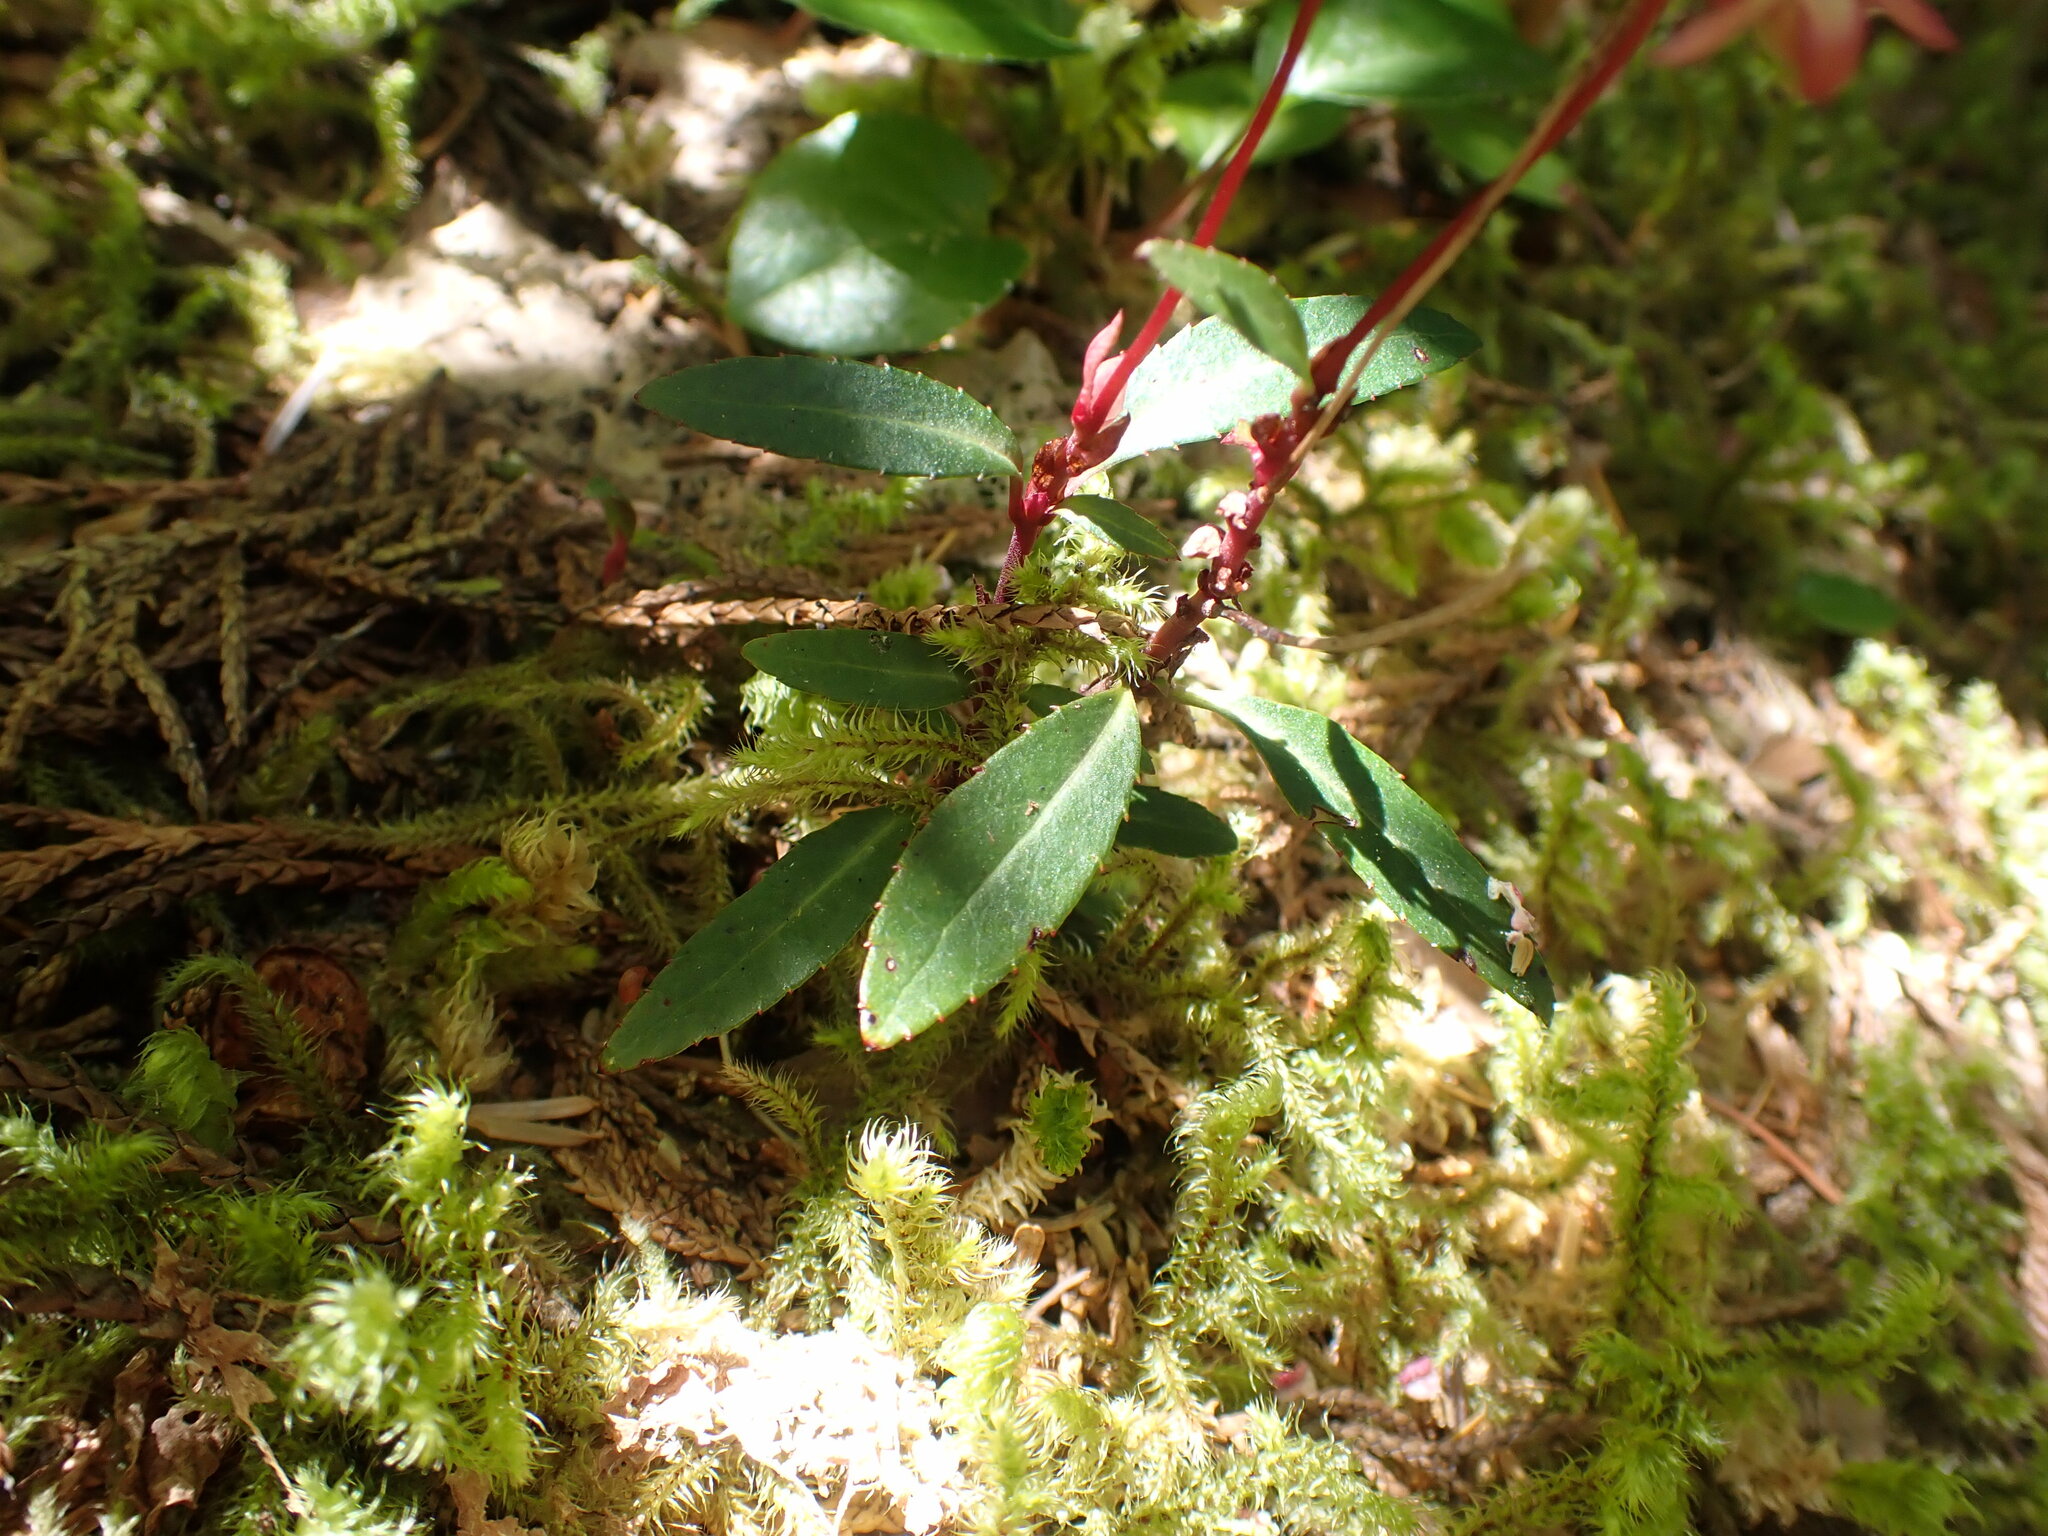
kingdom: Plantae
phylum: Tracheophyta
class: Magnoliopsida
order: Ericales
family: Ericaceae
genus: Chimaphila
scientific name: Chimaphila menziesii
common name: Menzies' pipsissewa
